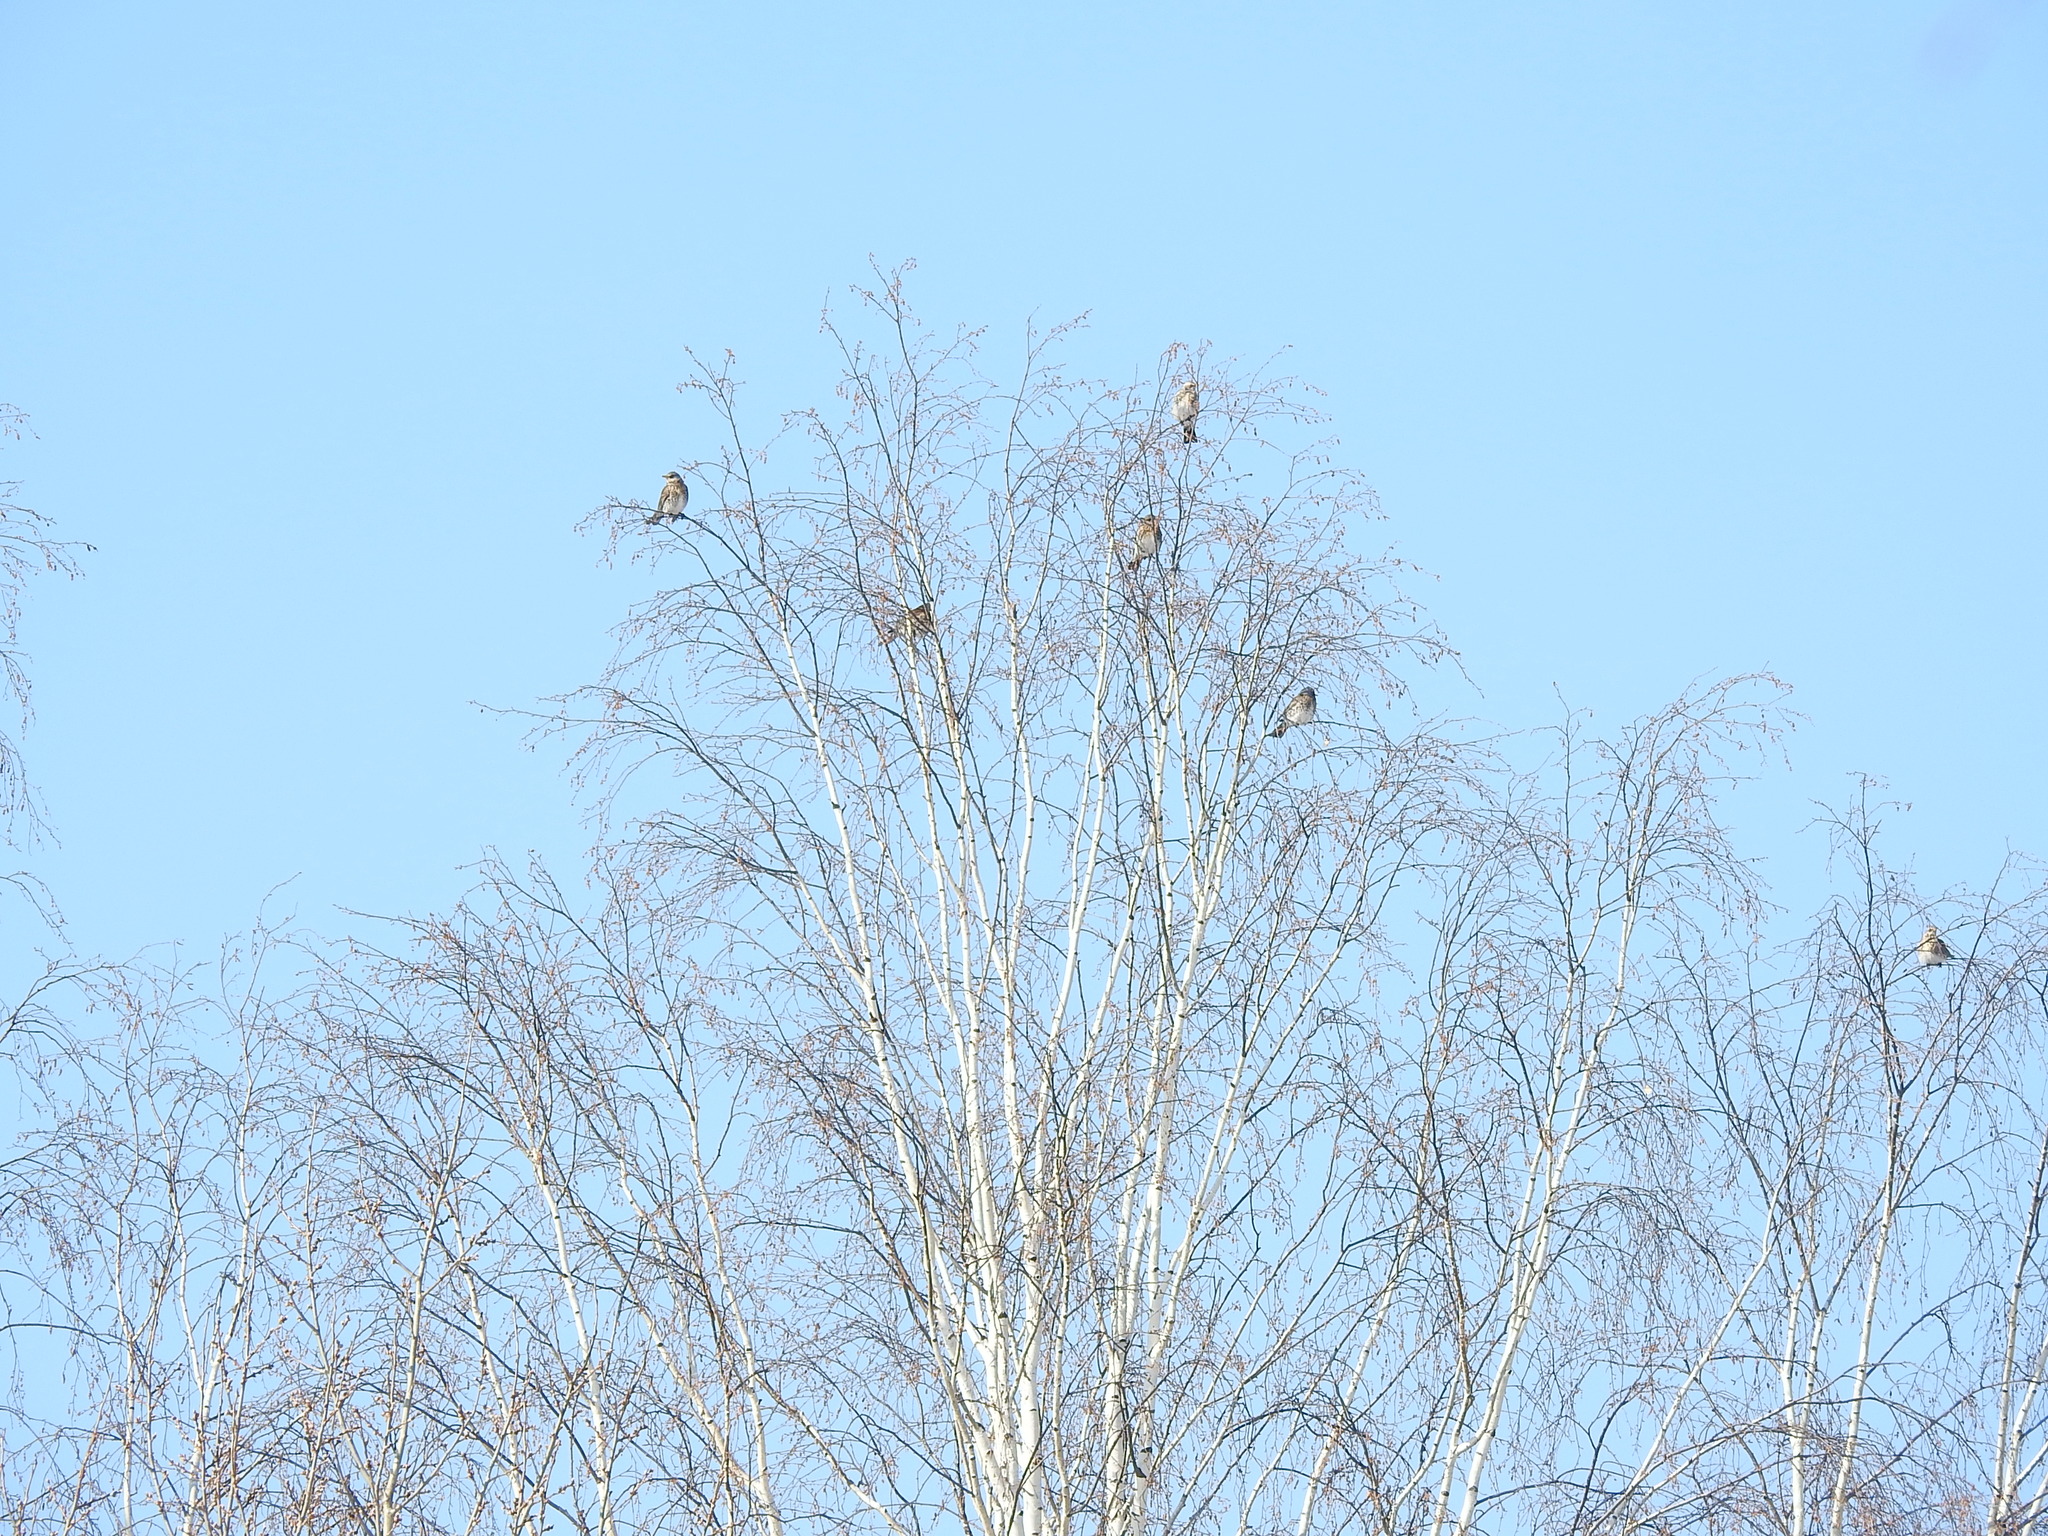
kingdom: Animalia
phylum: Chordata
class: Aves
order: Passeriformes
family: Turdidae
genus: Turdus
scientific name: Turdus pilaris
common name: Fieldfare
